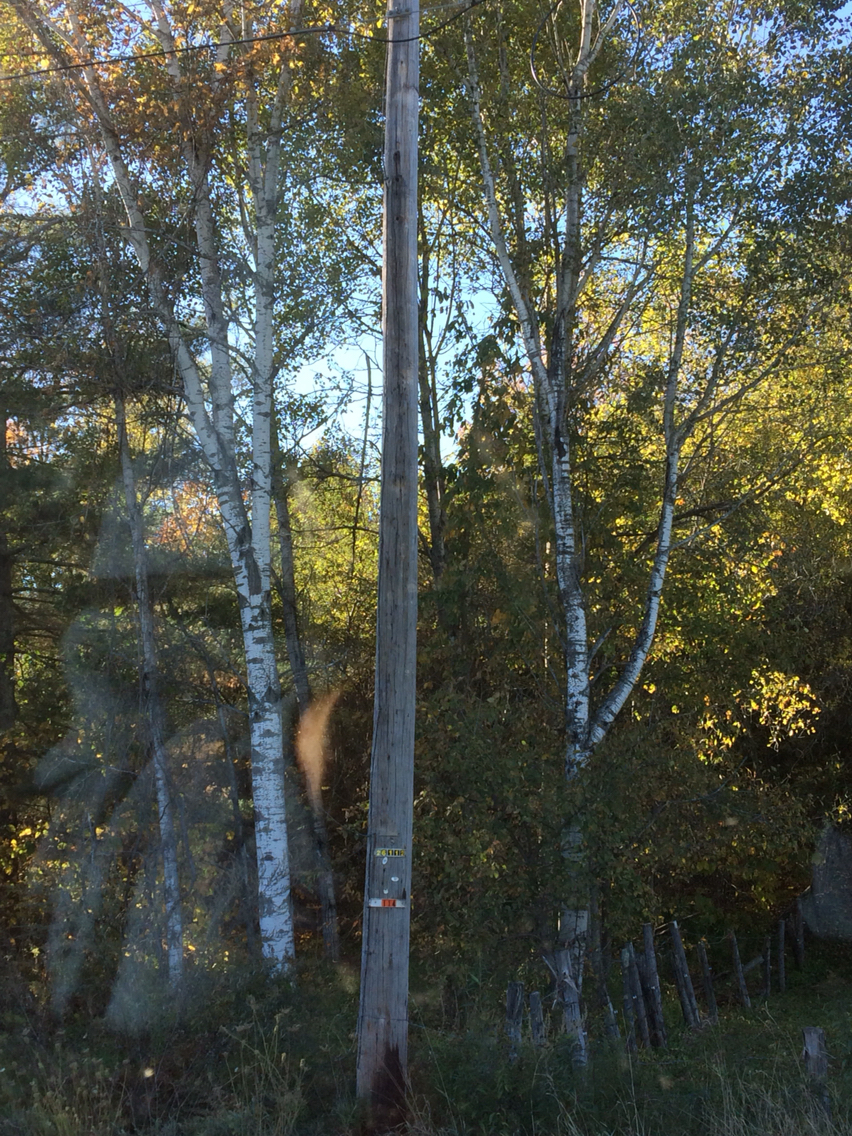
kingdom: Plantae
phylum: Tracheophyta
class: Magnoliopsida
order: Malpighiales
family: Salicaceae
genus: Populus
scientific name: Populus tremuloides
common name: Quaking aspen
